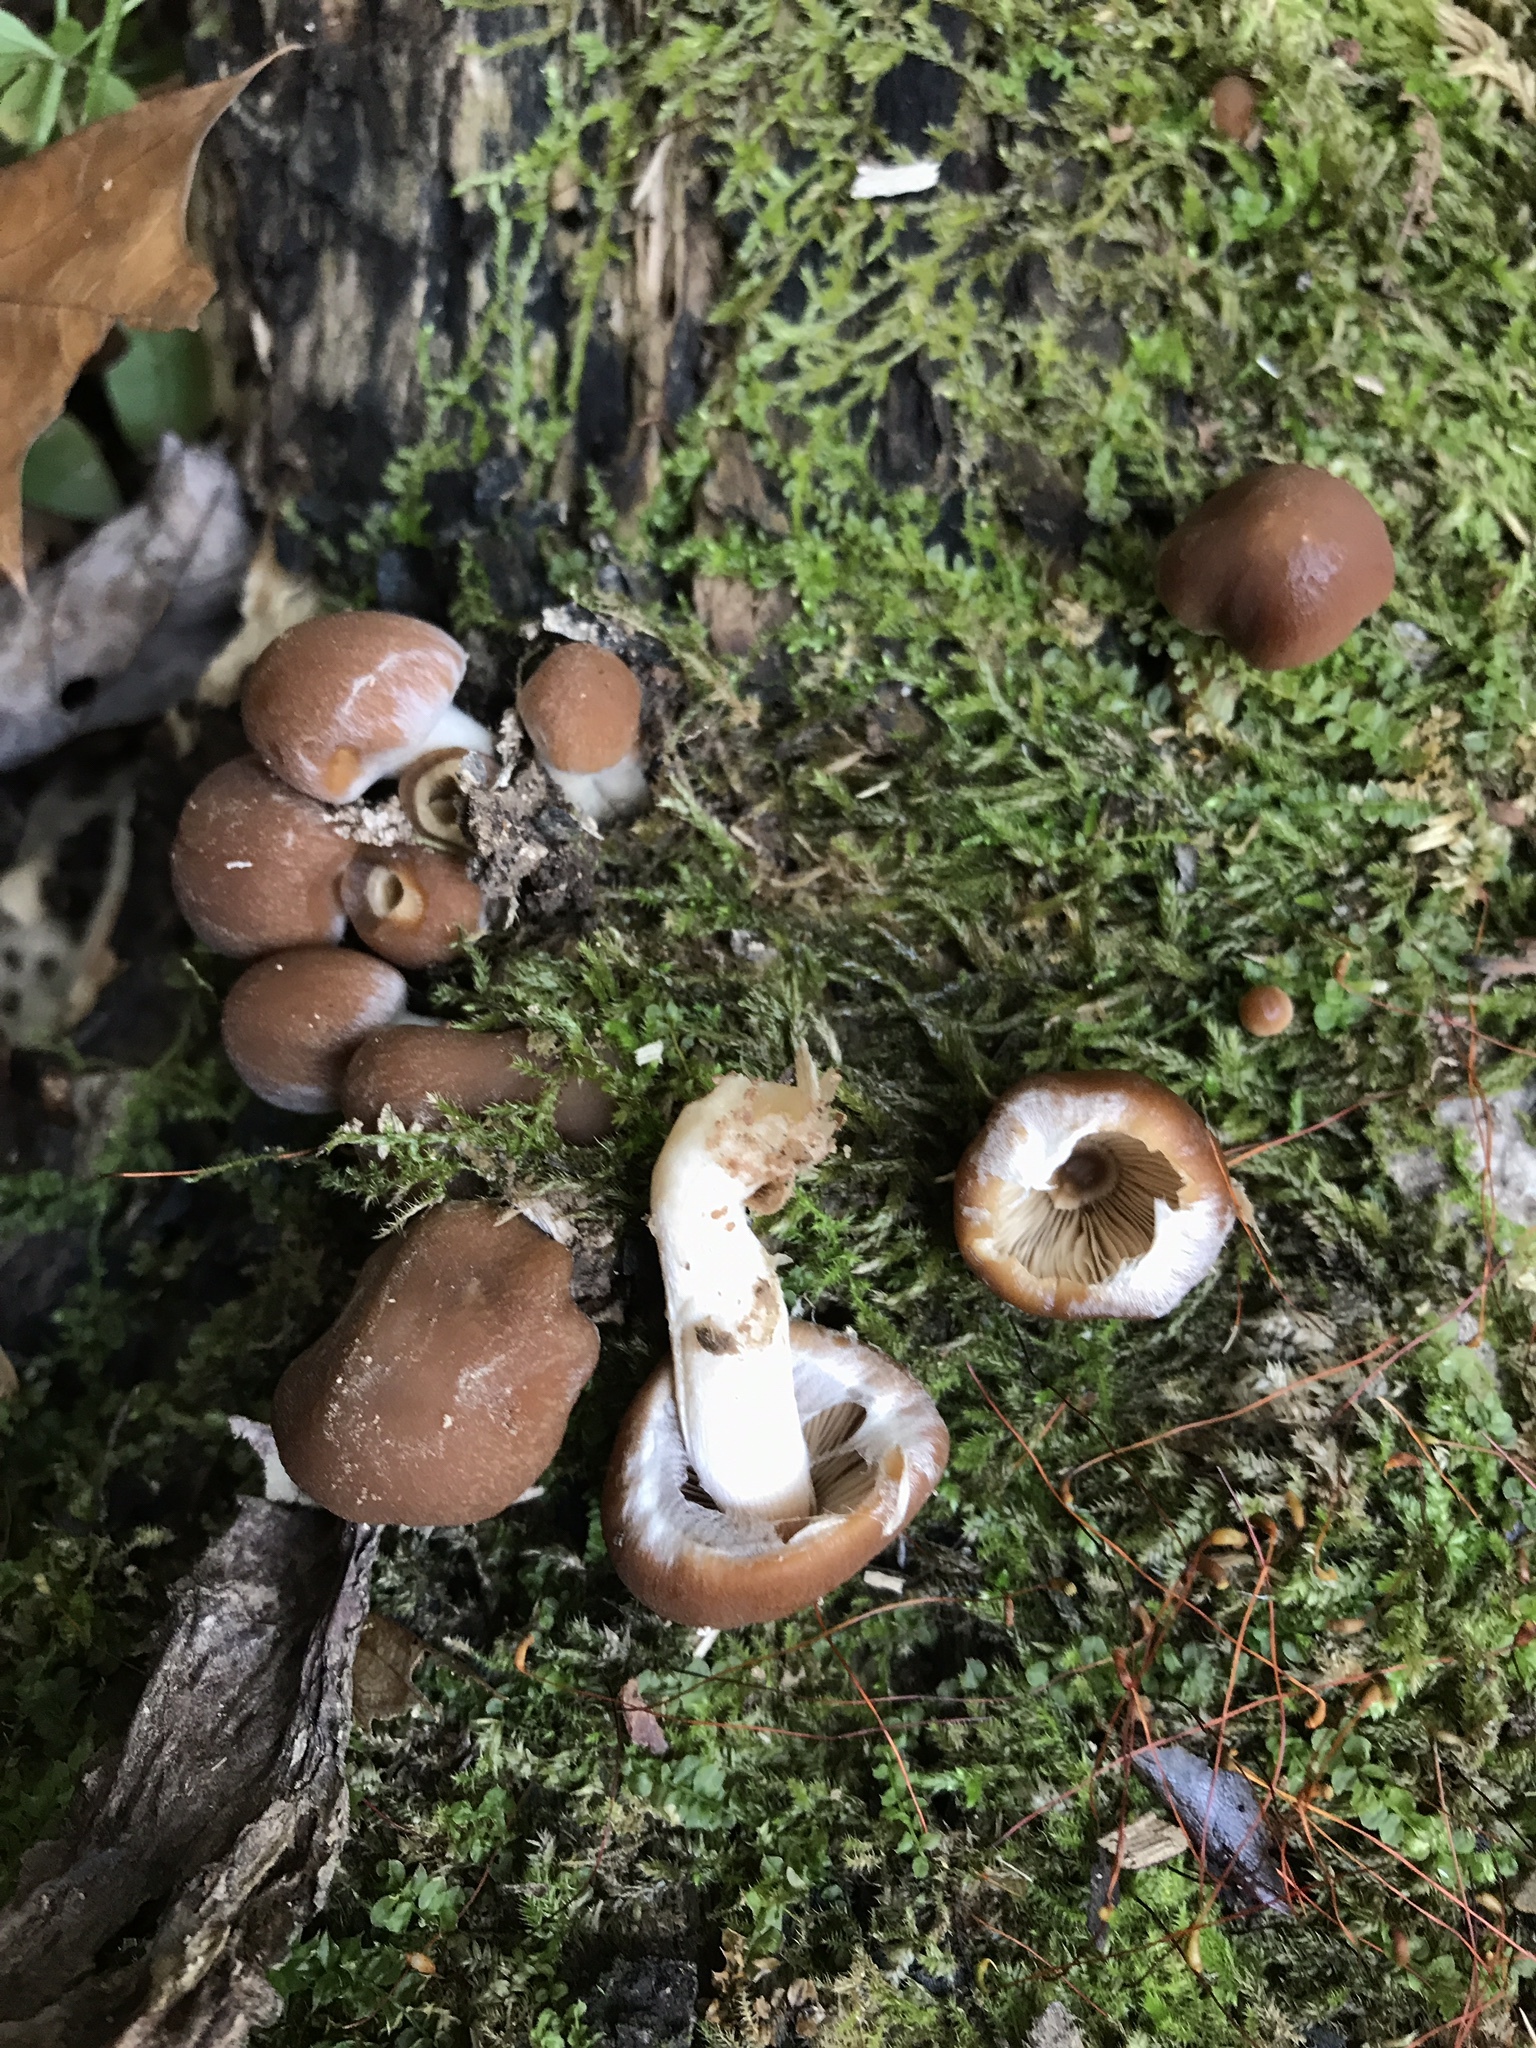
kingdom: Fungi
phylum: Basidiomycota
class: Agaricomycetes
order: Agaricales
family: Psathyrellaceae
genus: Psathyrella
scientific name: Psathyrella piluliformis
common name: Common stump brittlestem
